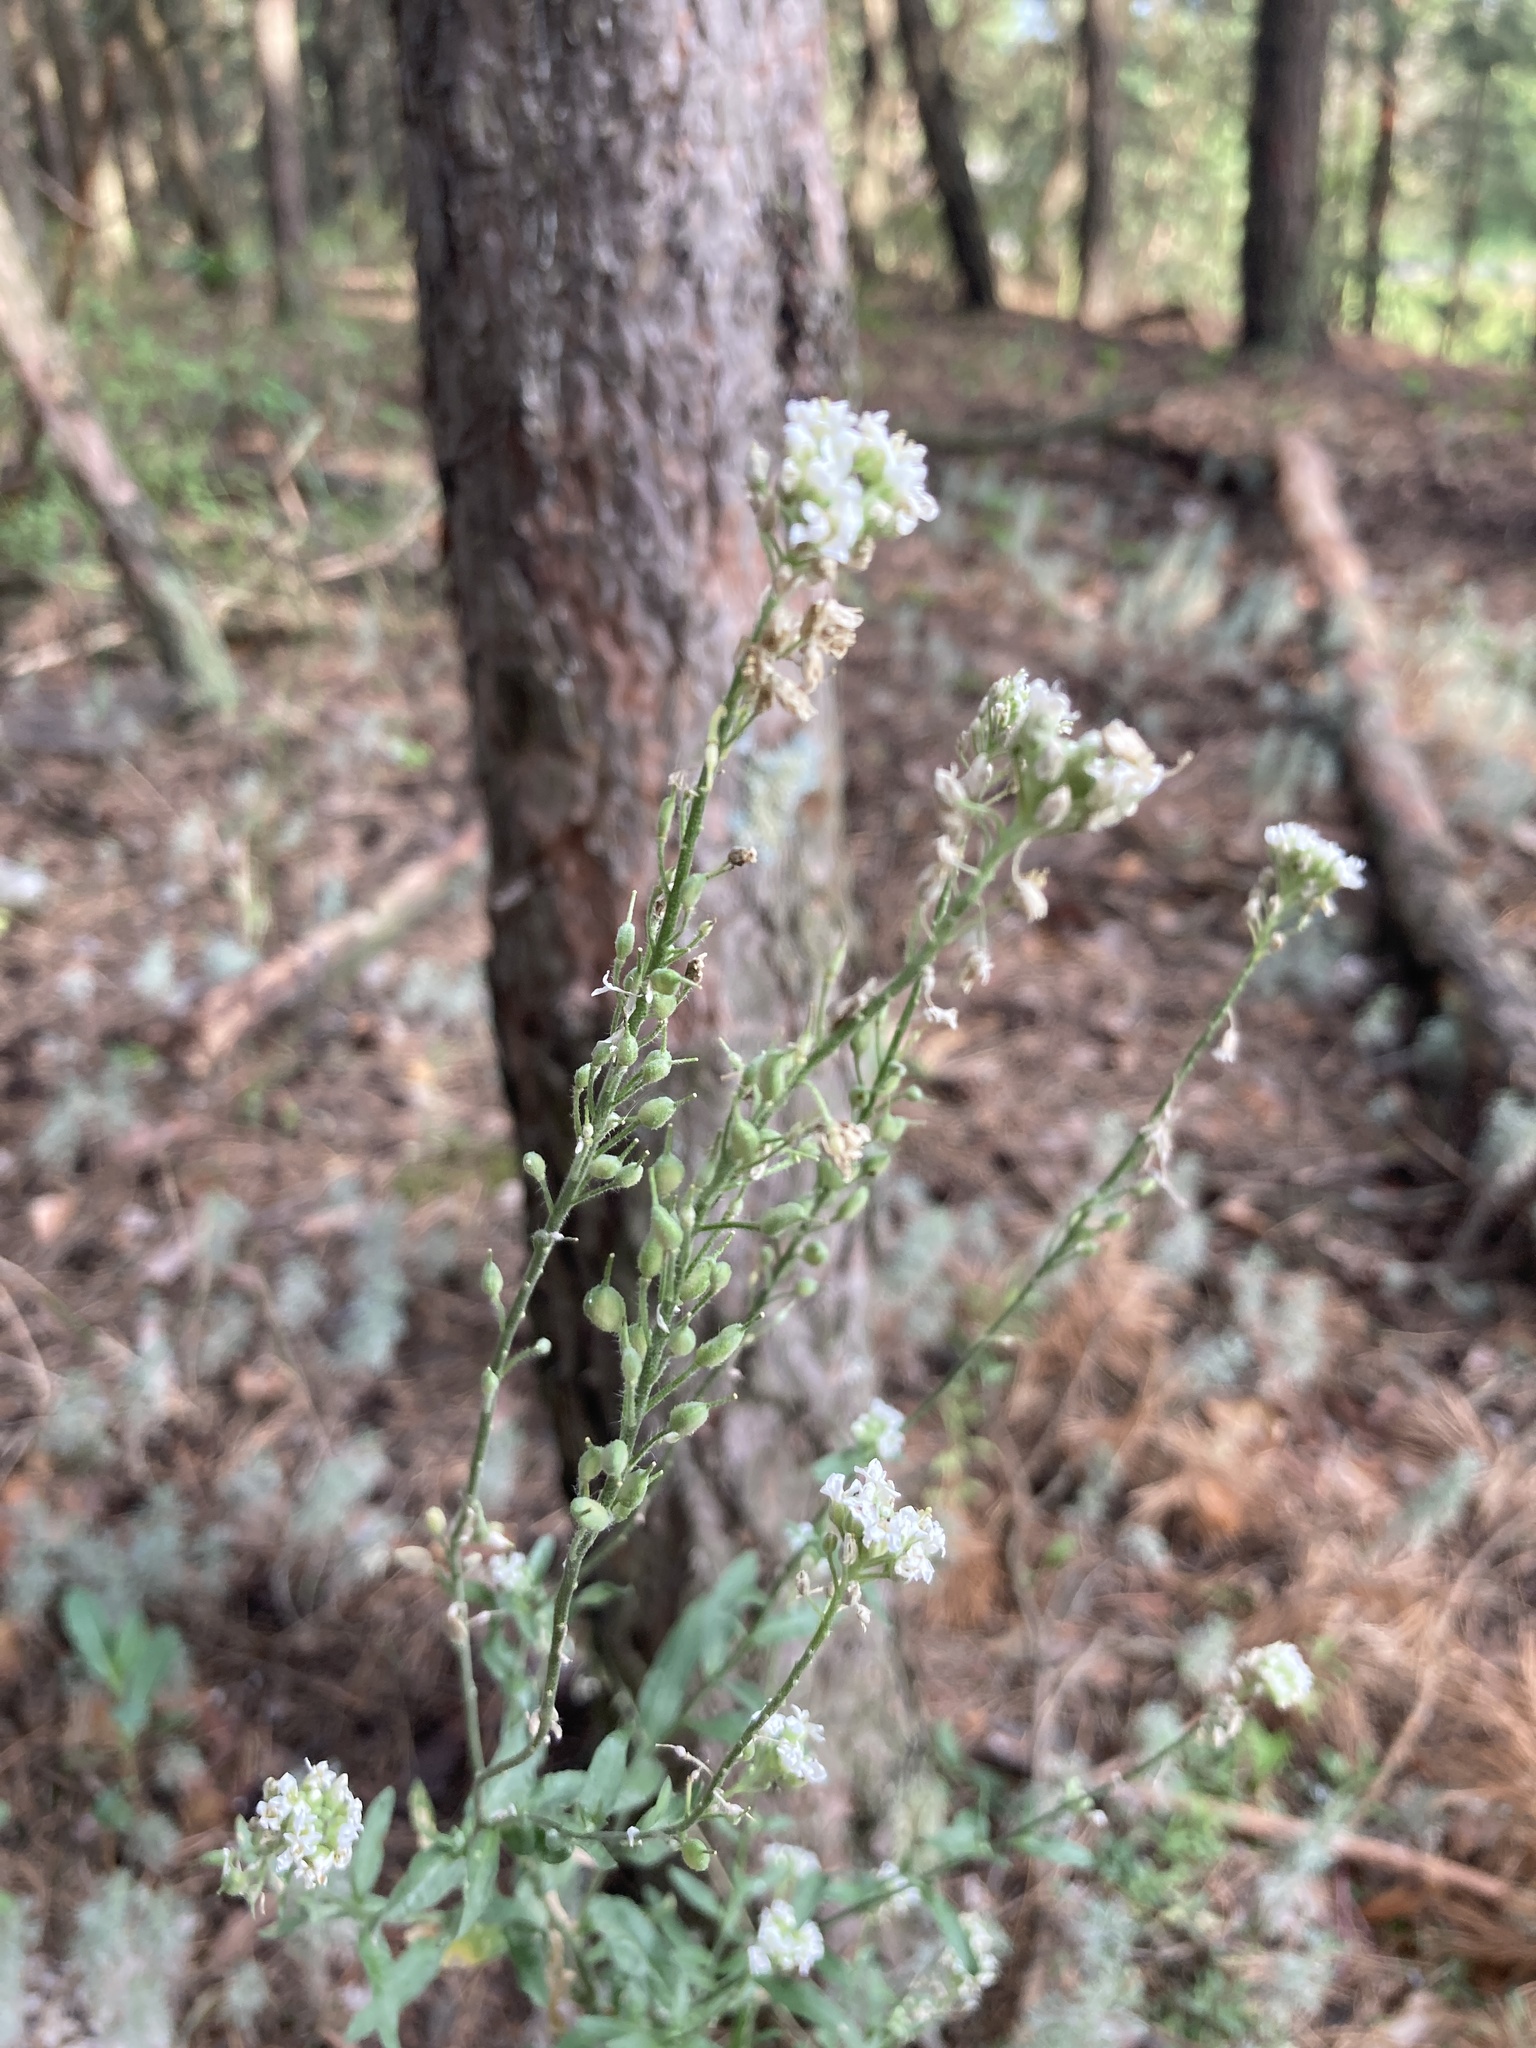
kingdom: Plantae
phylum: Tracheophyta
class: Magnoliopsida
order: Brassicales
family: Brassicaceae
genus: Berteroa
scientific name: Berteroa incana
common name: Hoary alison
